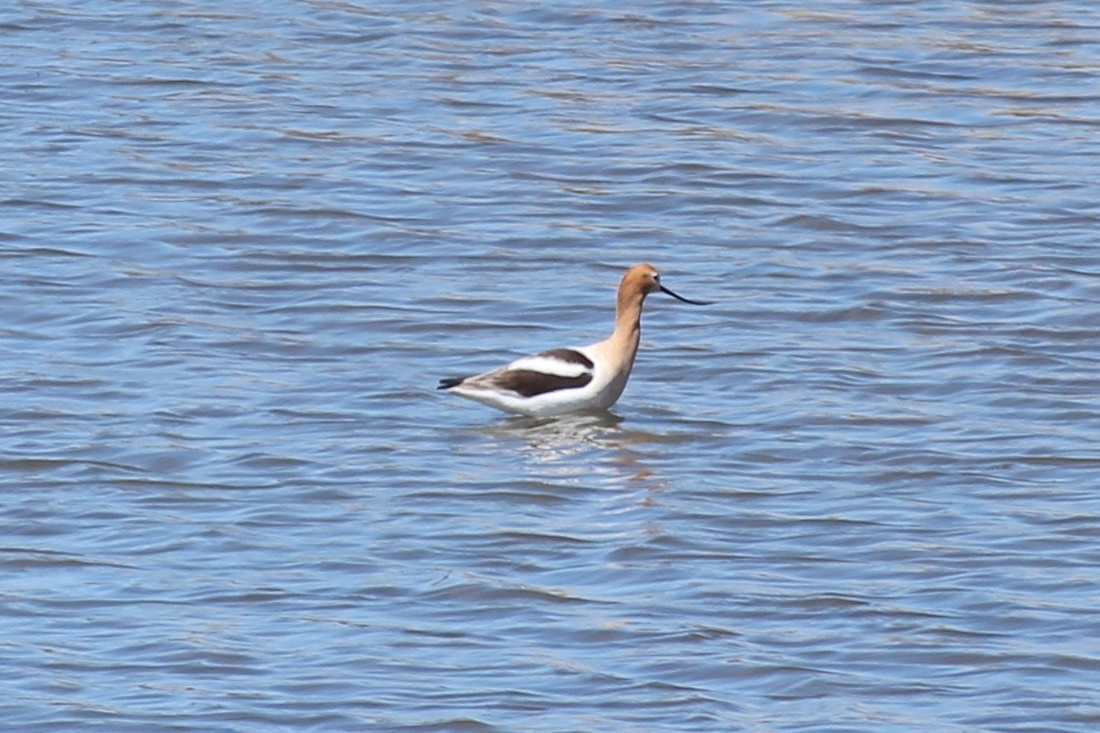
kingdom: Animalia
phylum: Chordata
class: Aves
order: Charadriiformes
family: Recurvirostridae
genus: Recurvirostra
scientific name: Recurvirostra americana
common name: American avocet
